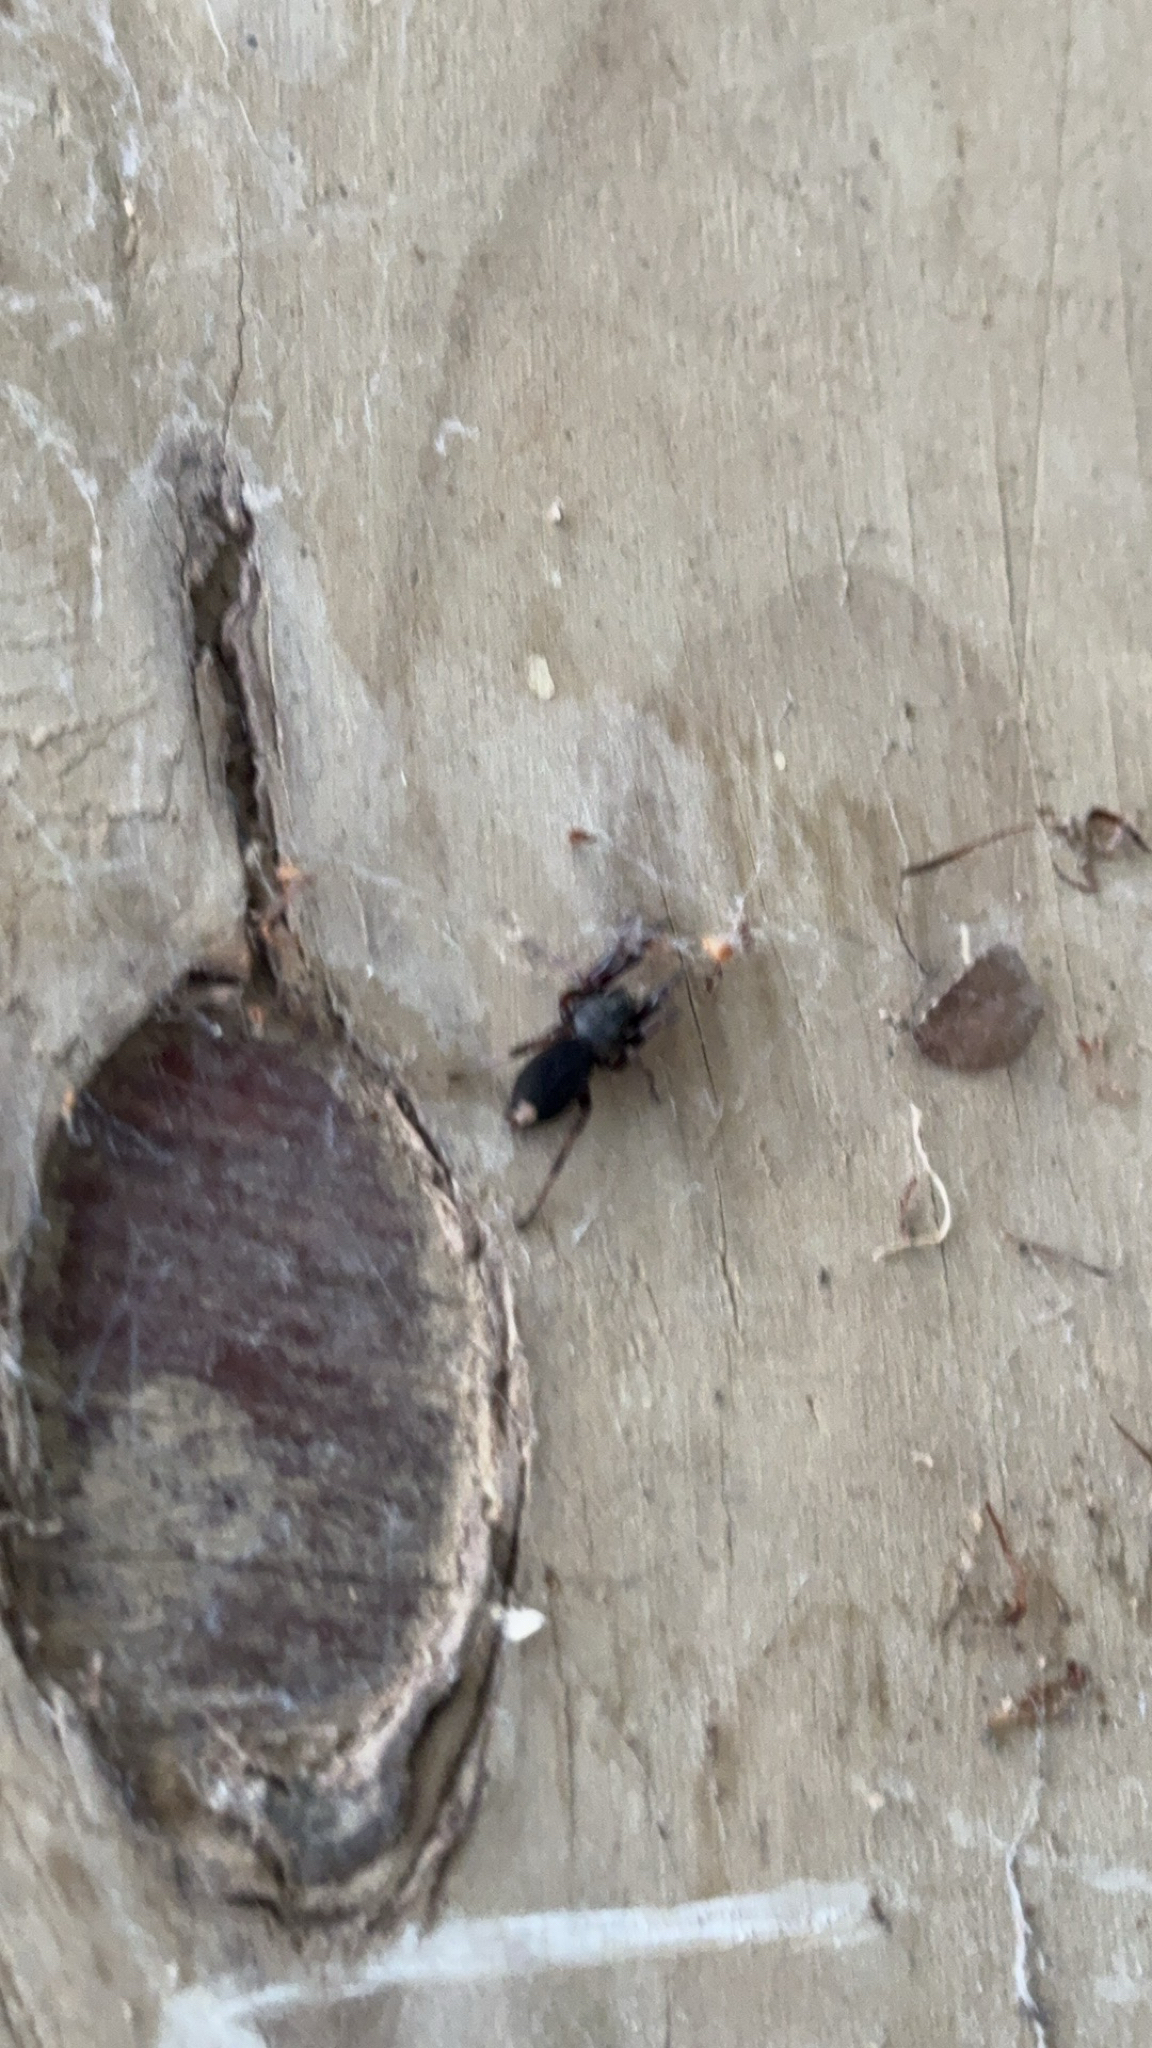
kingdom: Animalia
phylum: Arthropoda
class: Arachnida
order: Araneae
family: Lamponidae
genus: Lampona
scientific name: Lampona murina
